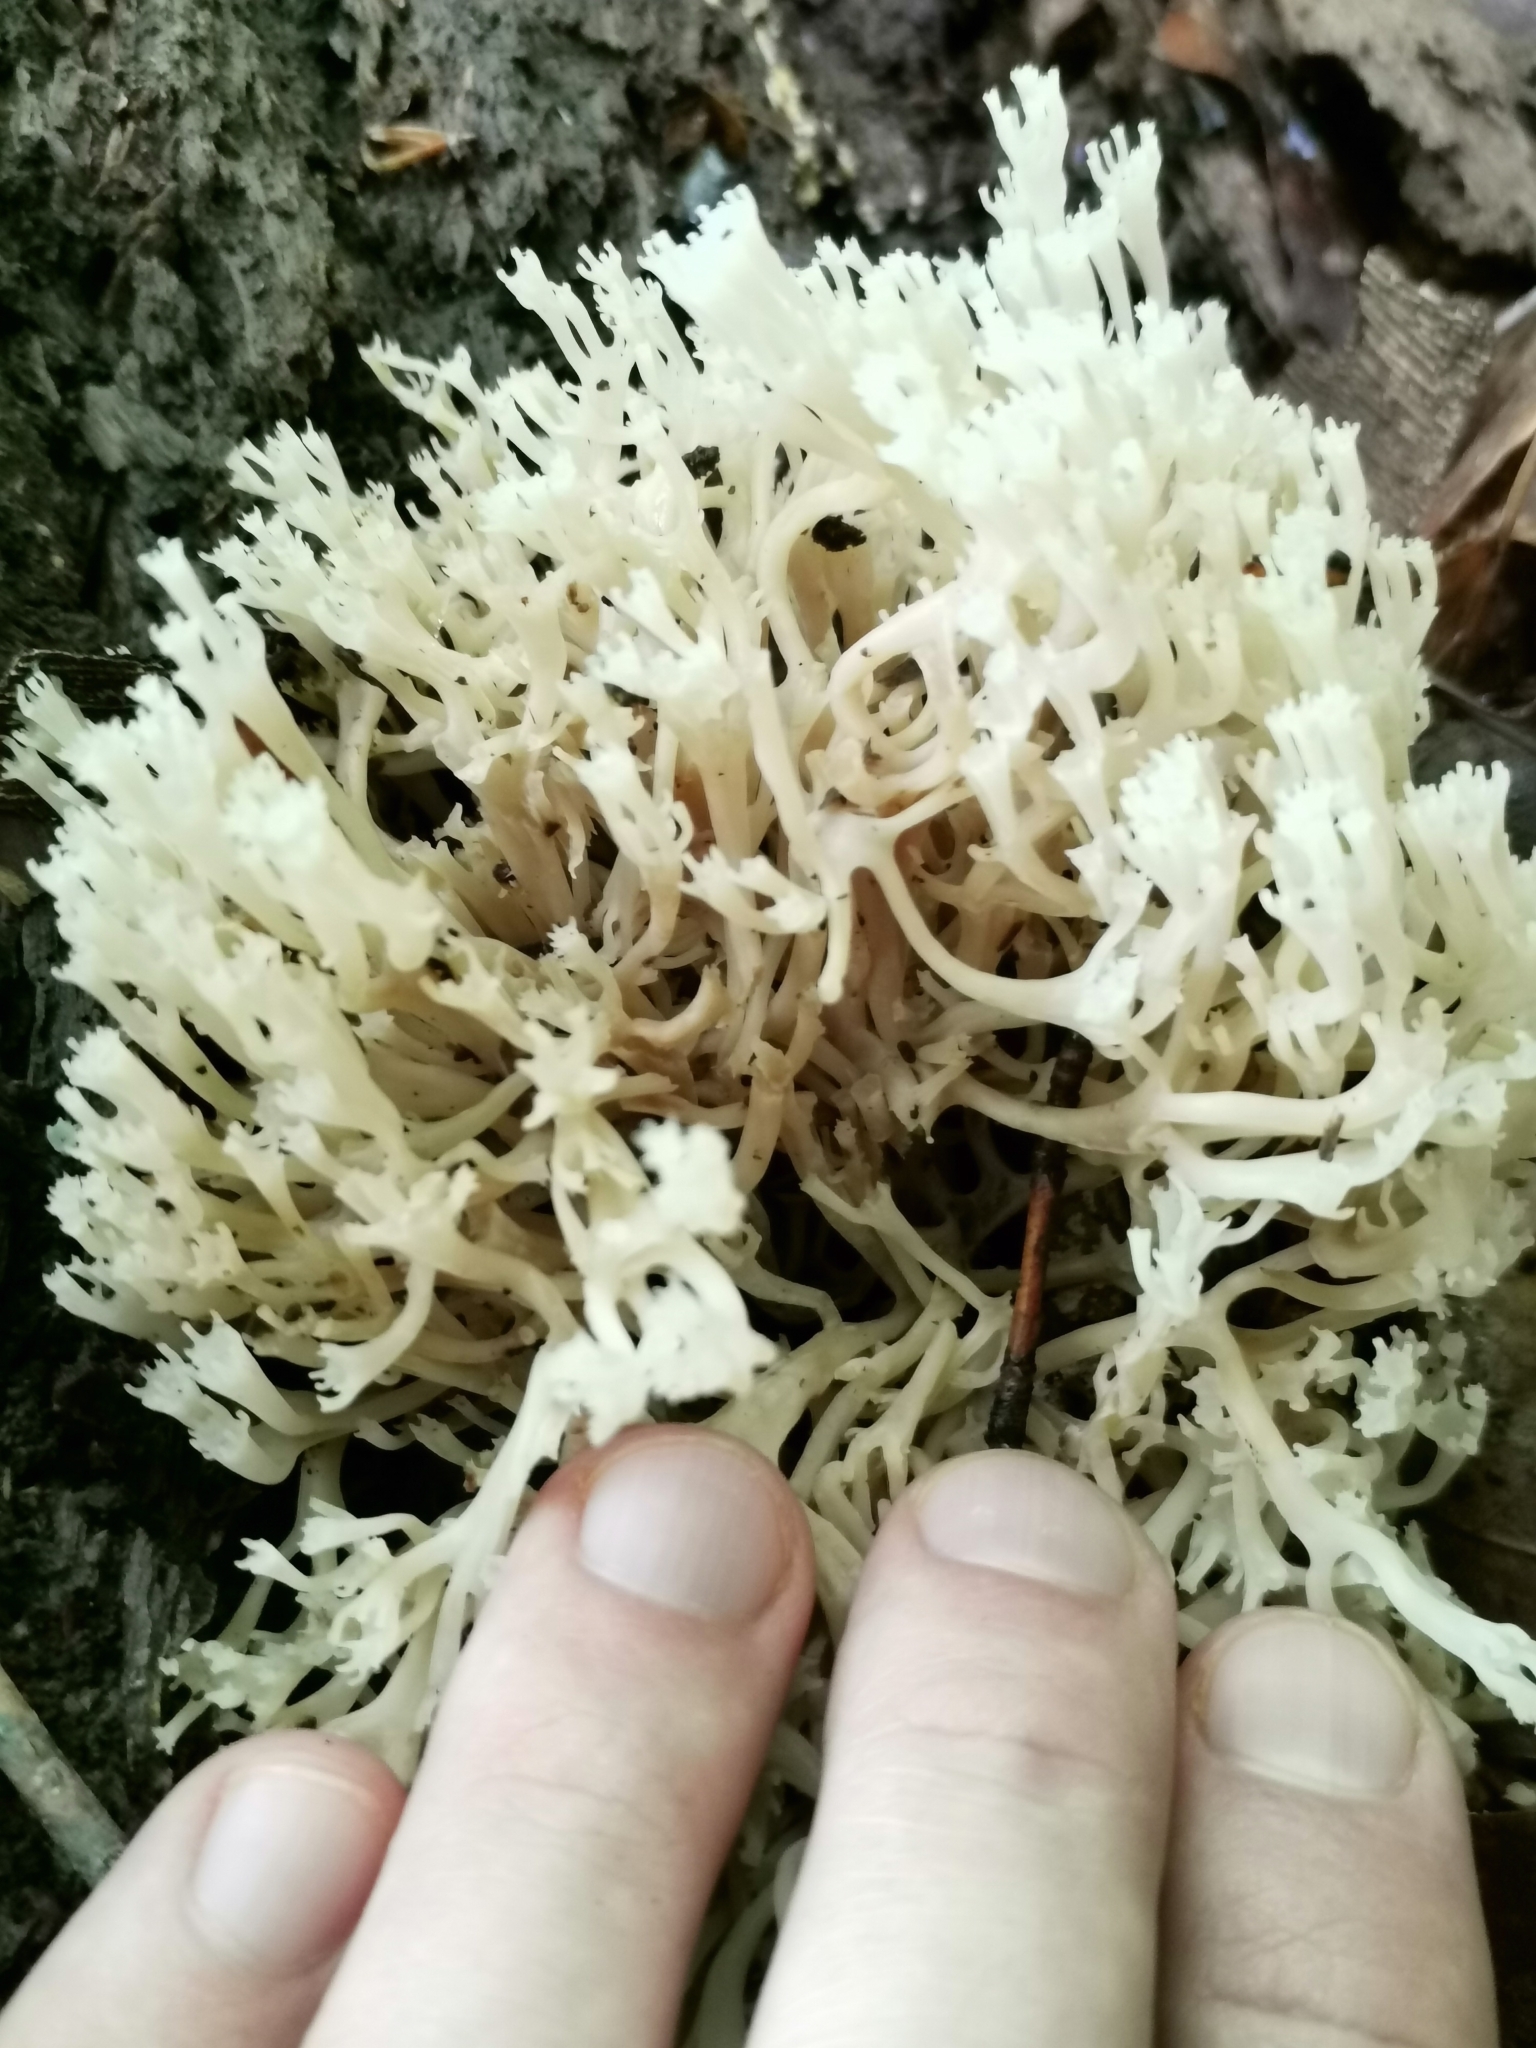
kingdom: Fungi
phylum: Basidiomycota
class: Agaricomycetes
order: Russulales
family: Auriscalpiaceae
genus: Artomyces
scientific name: Artomyces pyxidatus
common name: Crown-tipped coral fungus
